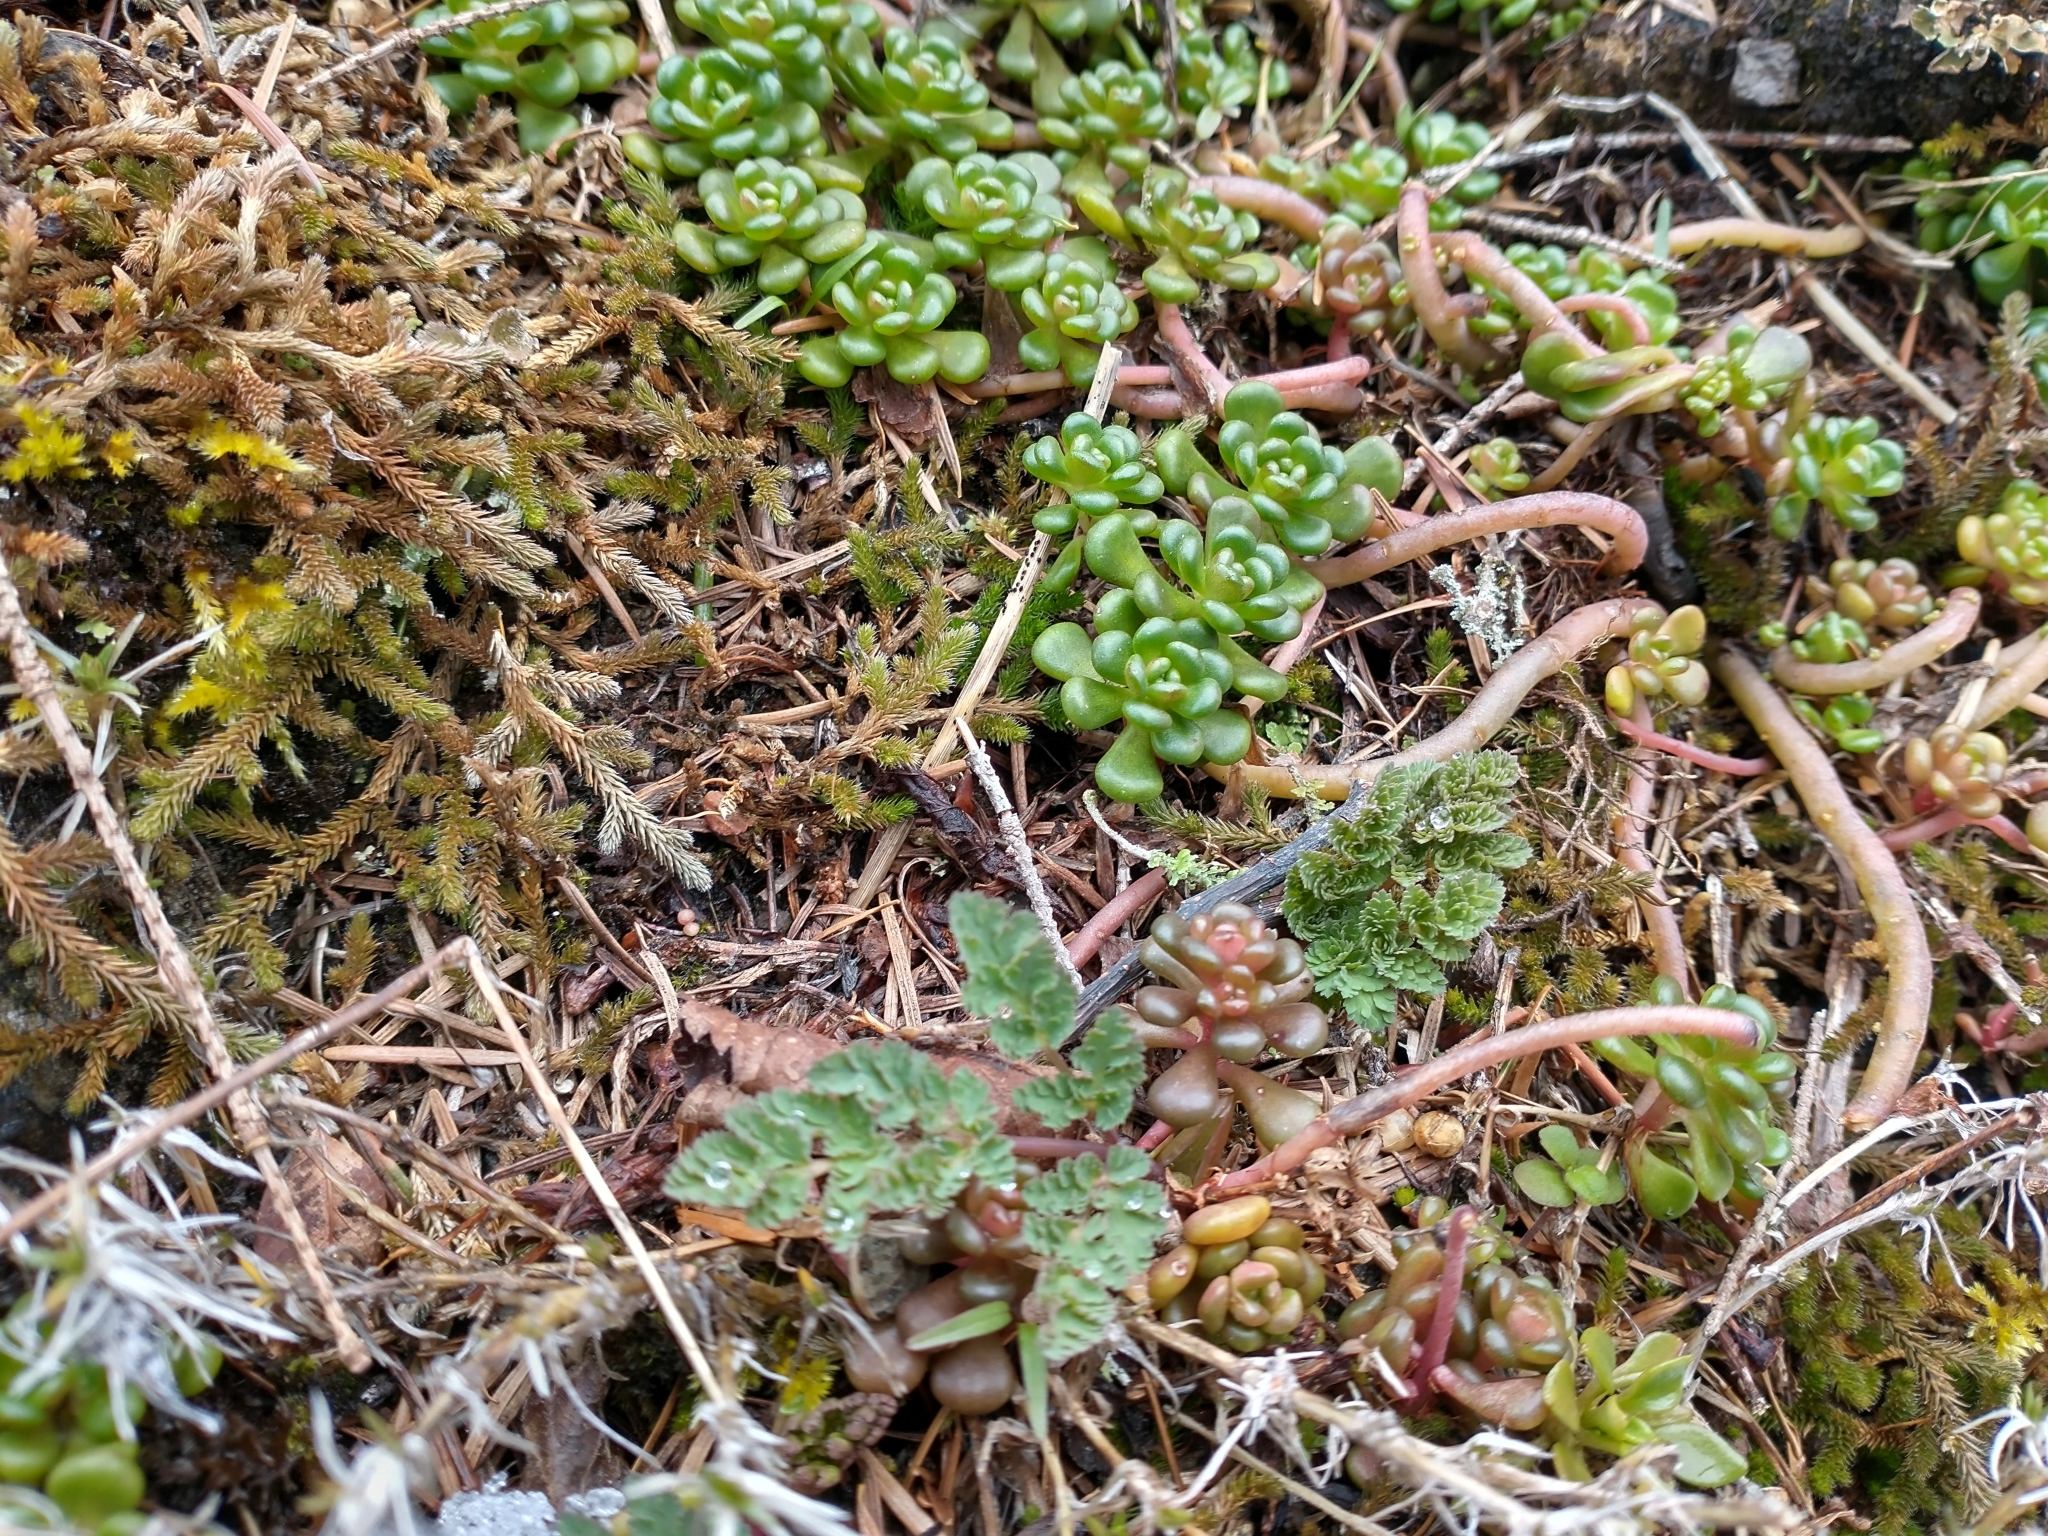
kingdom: Plantae
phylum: Tracheophyta
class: Magnoliopsida
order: Apiales
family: Apiaceae
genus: Lomatium
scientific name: Lomatium martindalei
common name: Cascade desert-parsley
